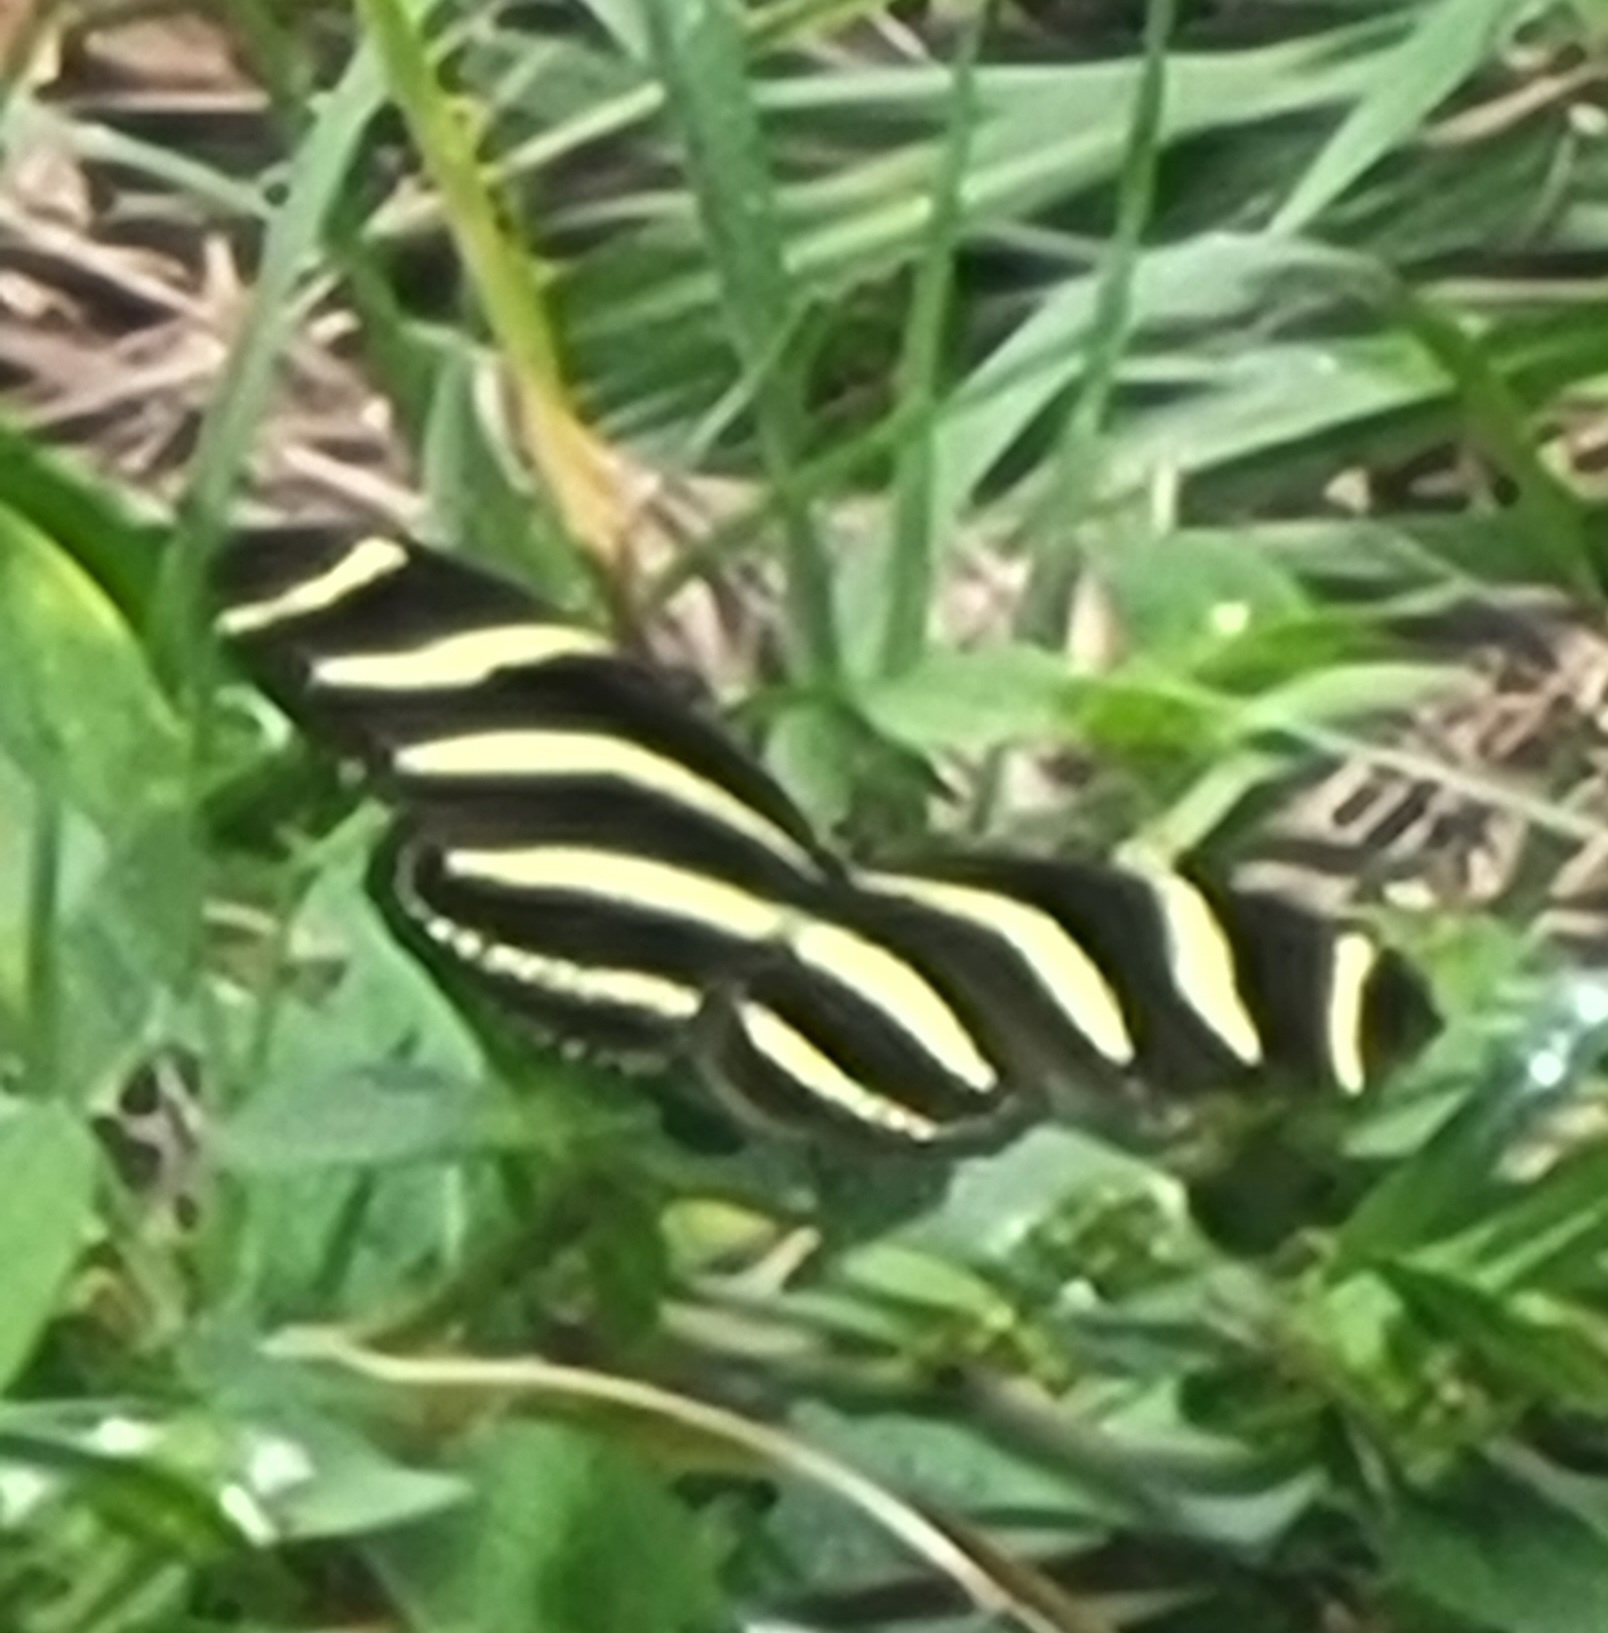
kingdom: Animalia
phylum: Arthropoda
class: Insecta
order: Lepidoptera
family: Nymphalidae
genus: Heliconius
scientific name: Heliconius charithonia
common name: Zebra long wing
